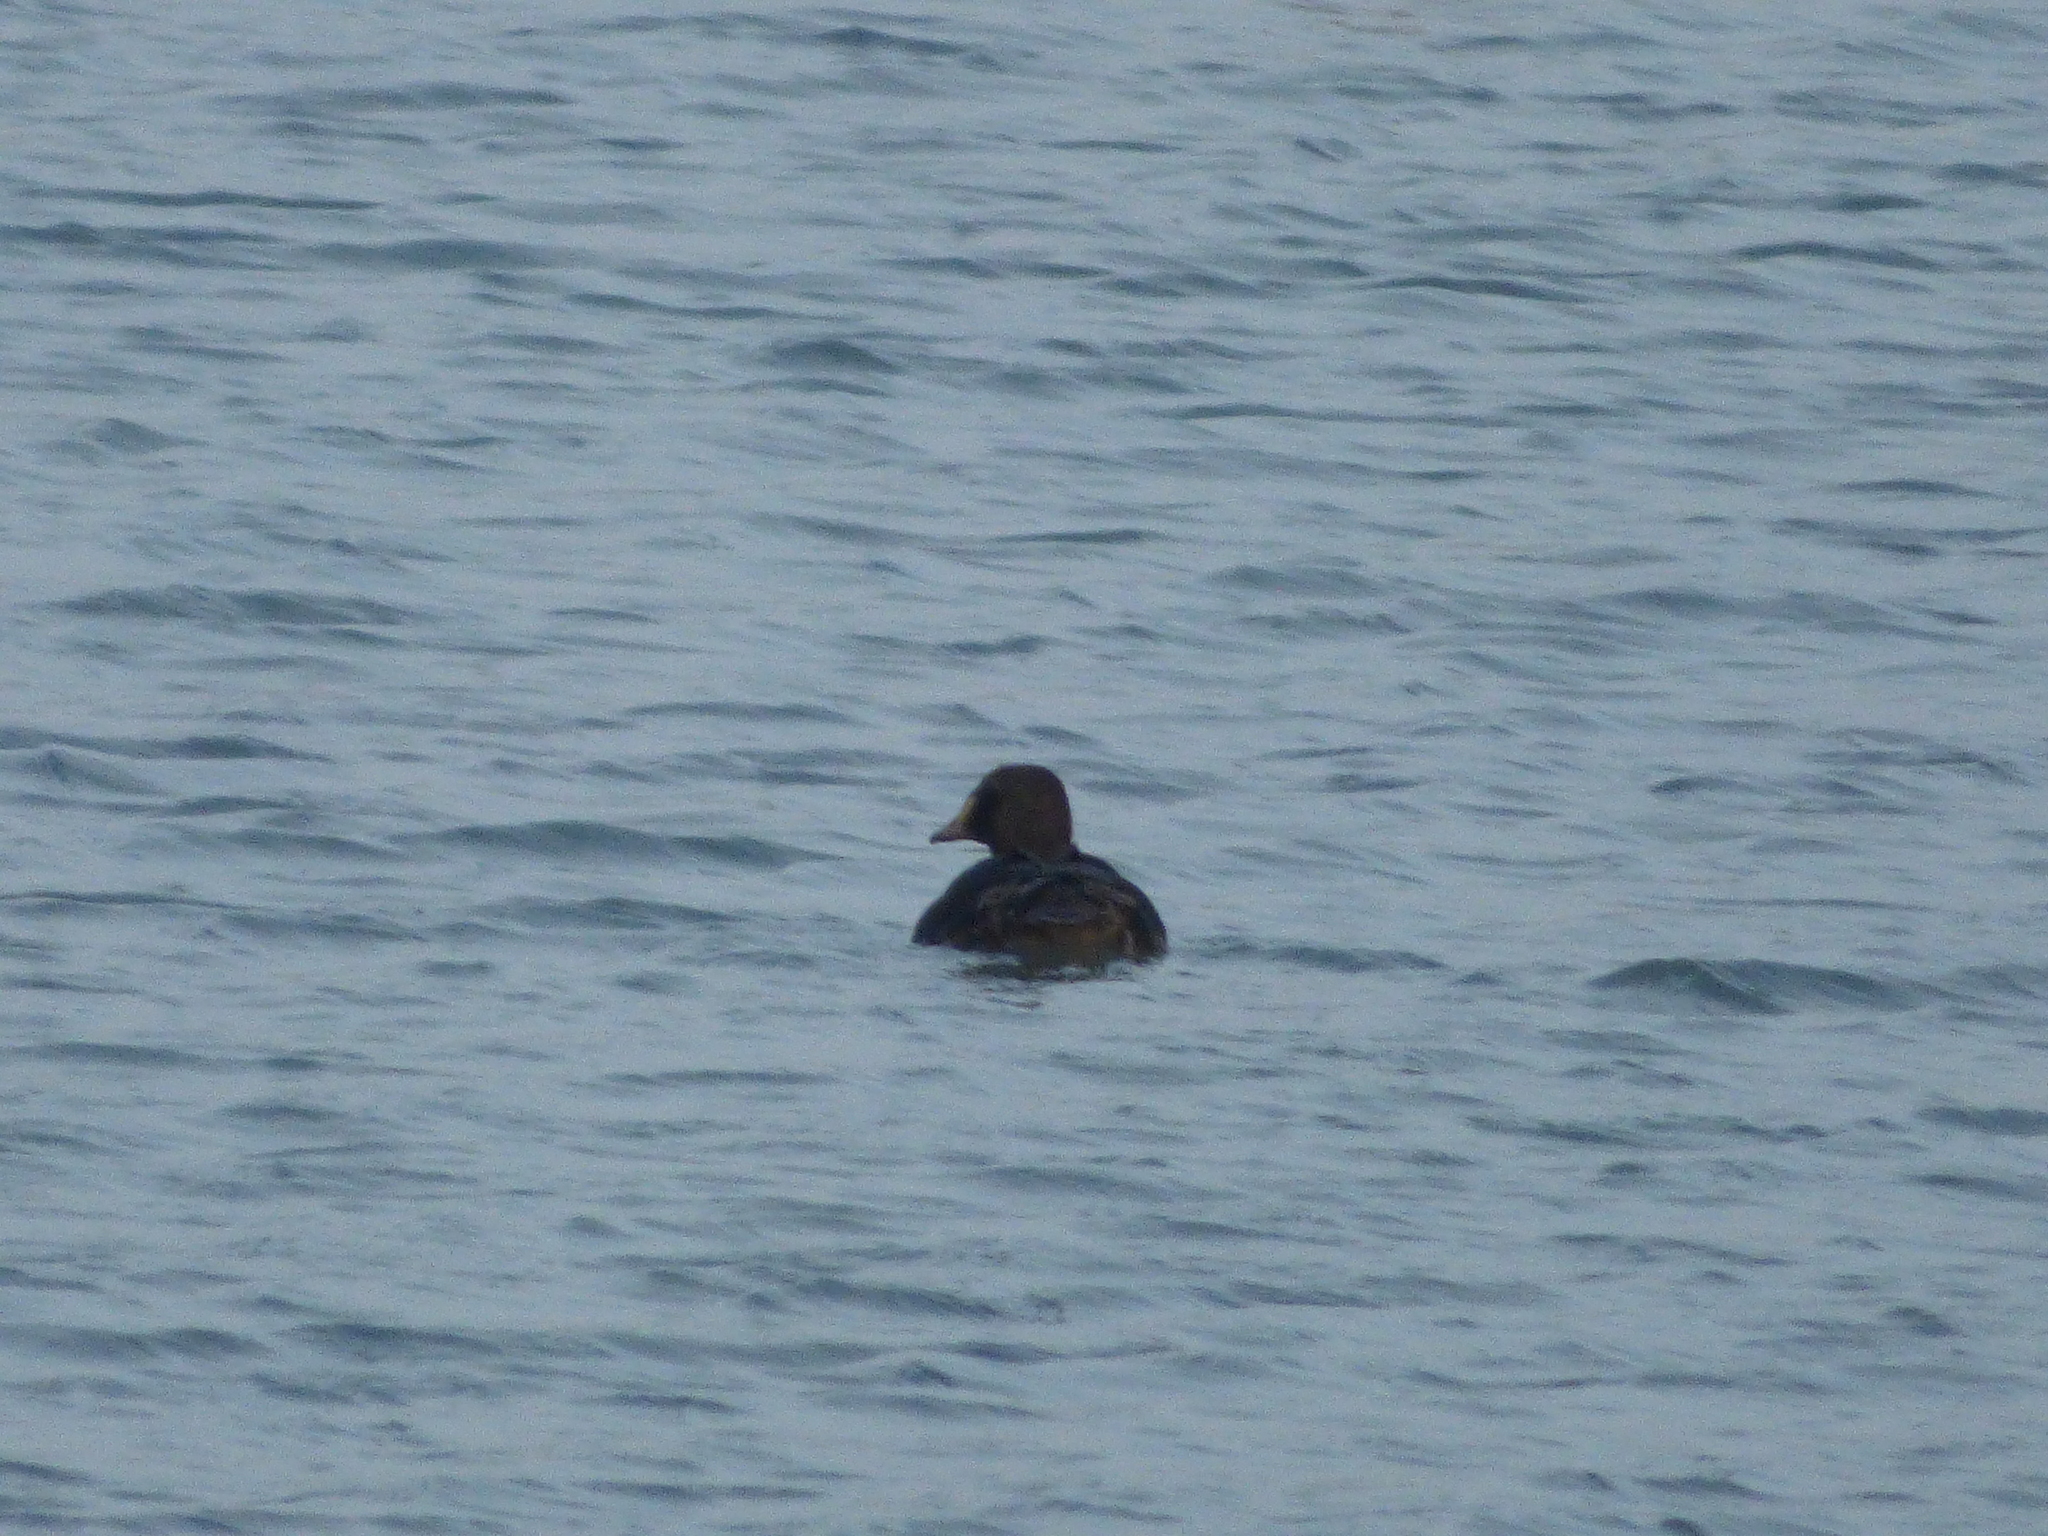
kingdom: Animalia
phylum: Chordata
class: Aves
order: Anseriformes
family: Anatidae
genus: Somateria
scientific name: Somateria spectabilis
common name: King eider
